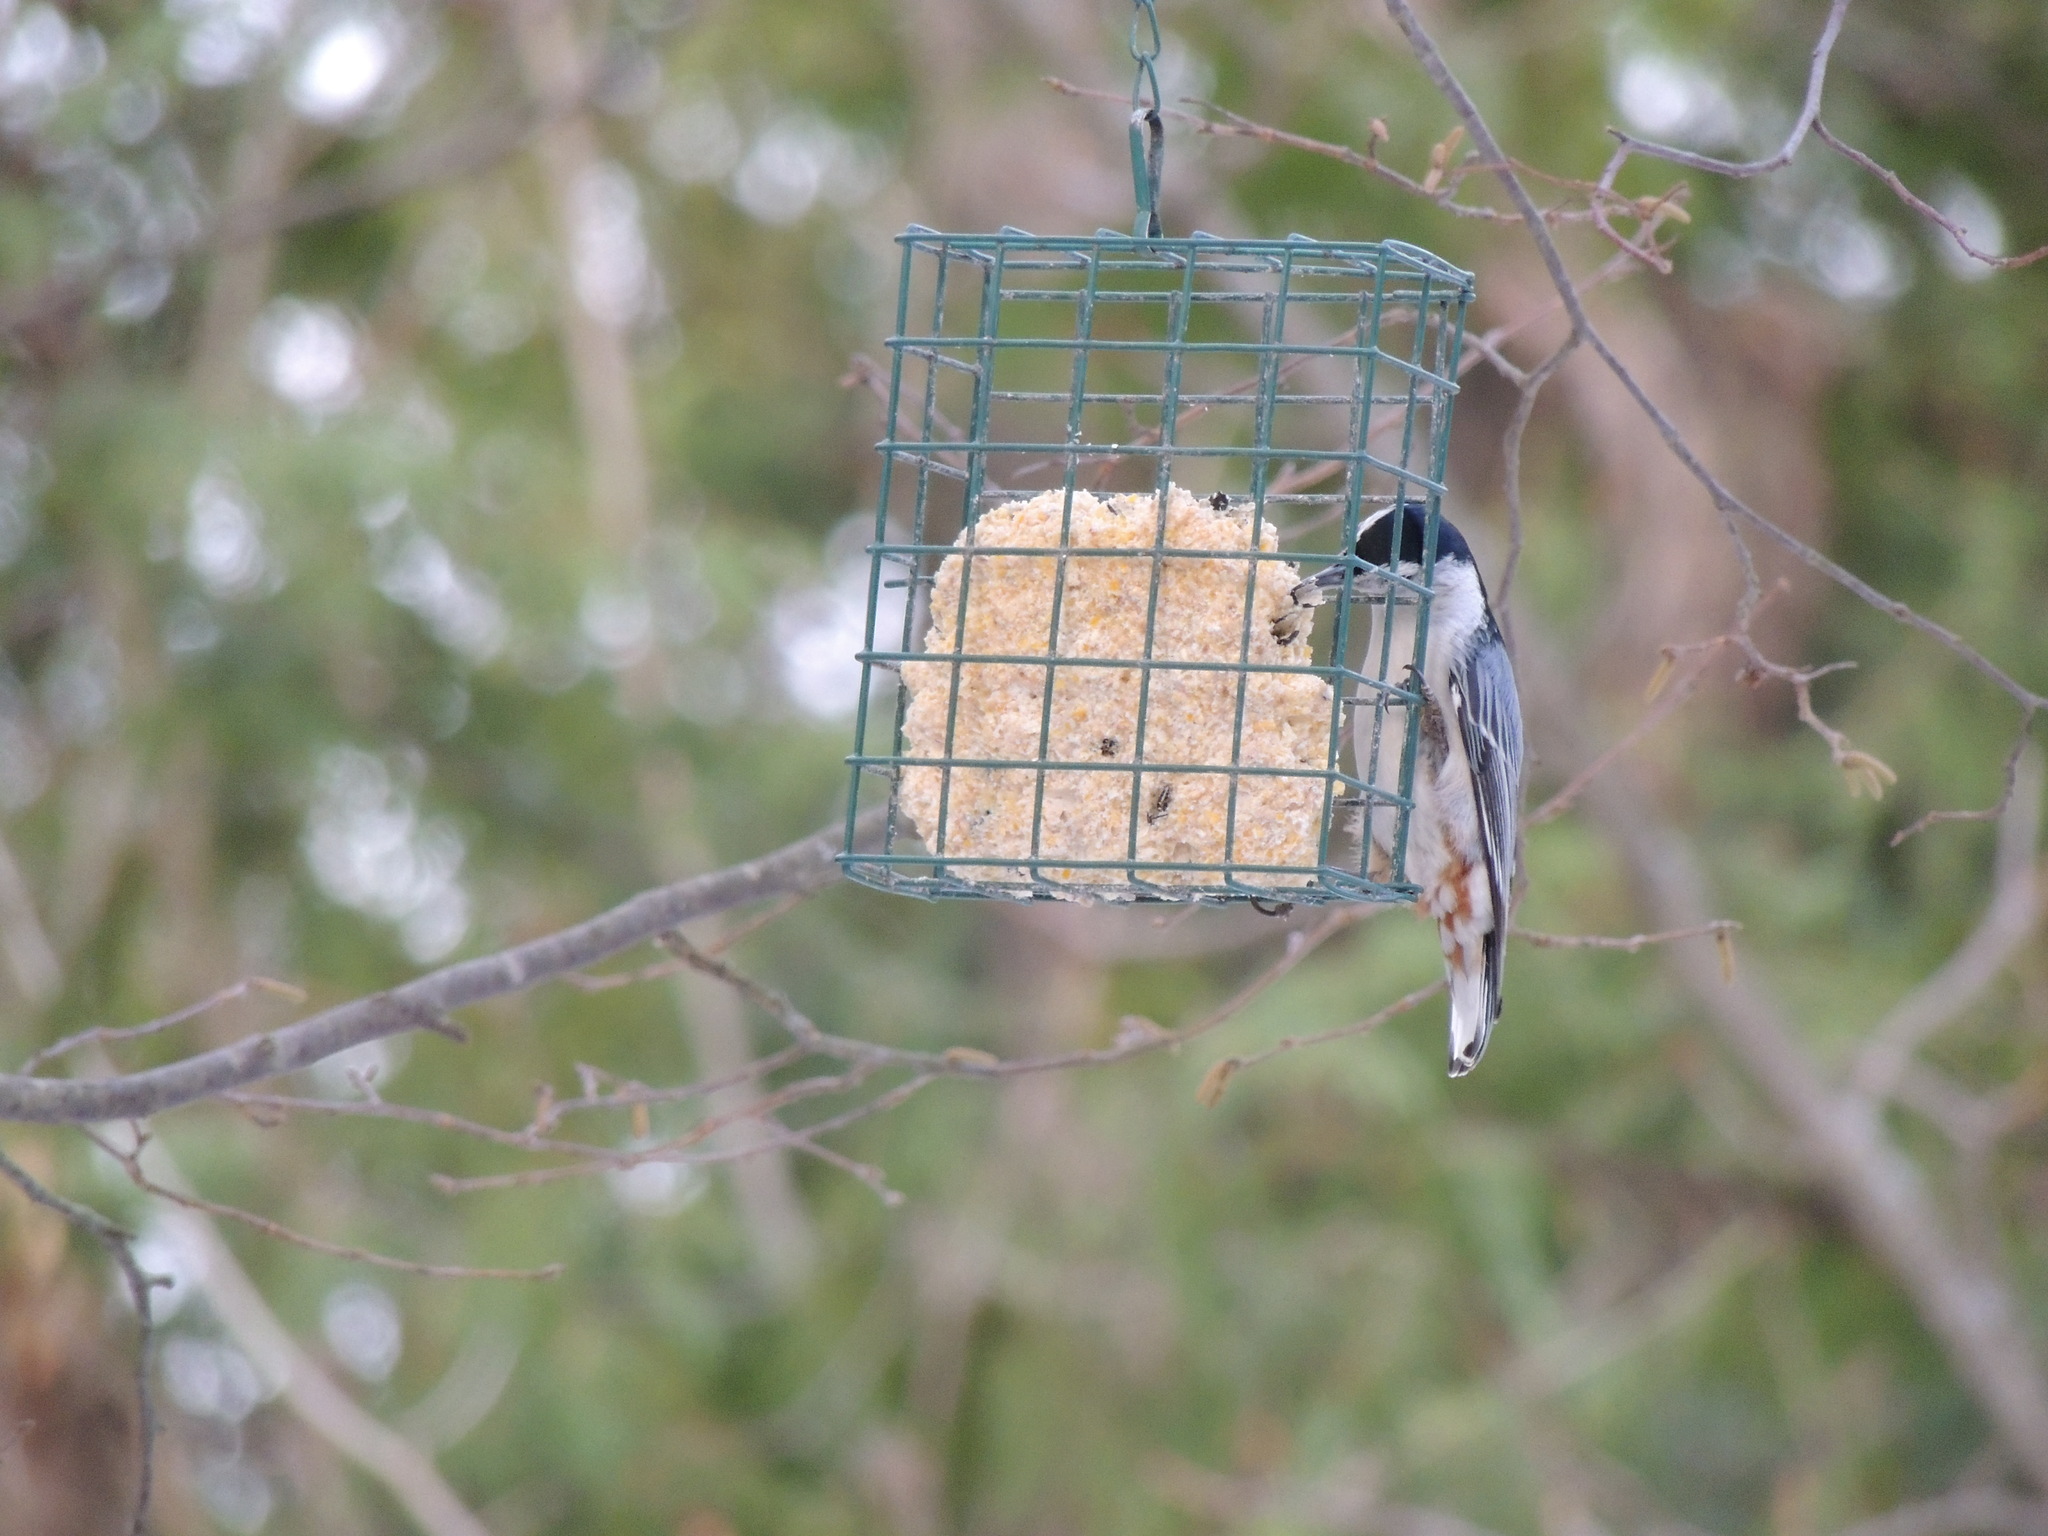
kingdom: Animalia
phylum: Chordata
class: Aves
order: Passeriformes
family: Sittidae
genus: Sitta
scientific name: Sitta carolinensis
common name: White-breasted nuthatch
